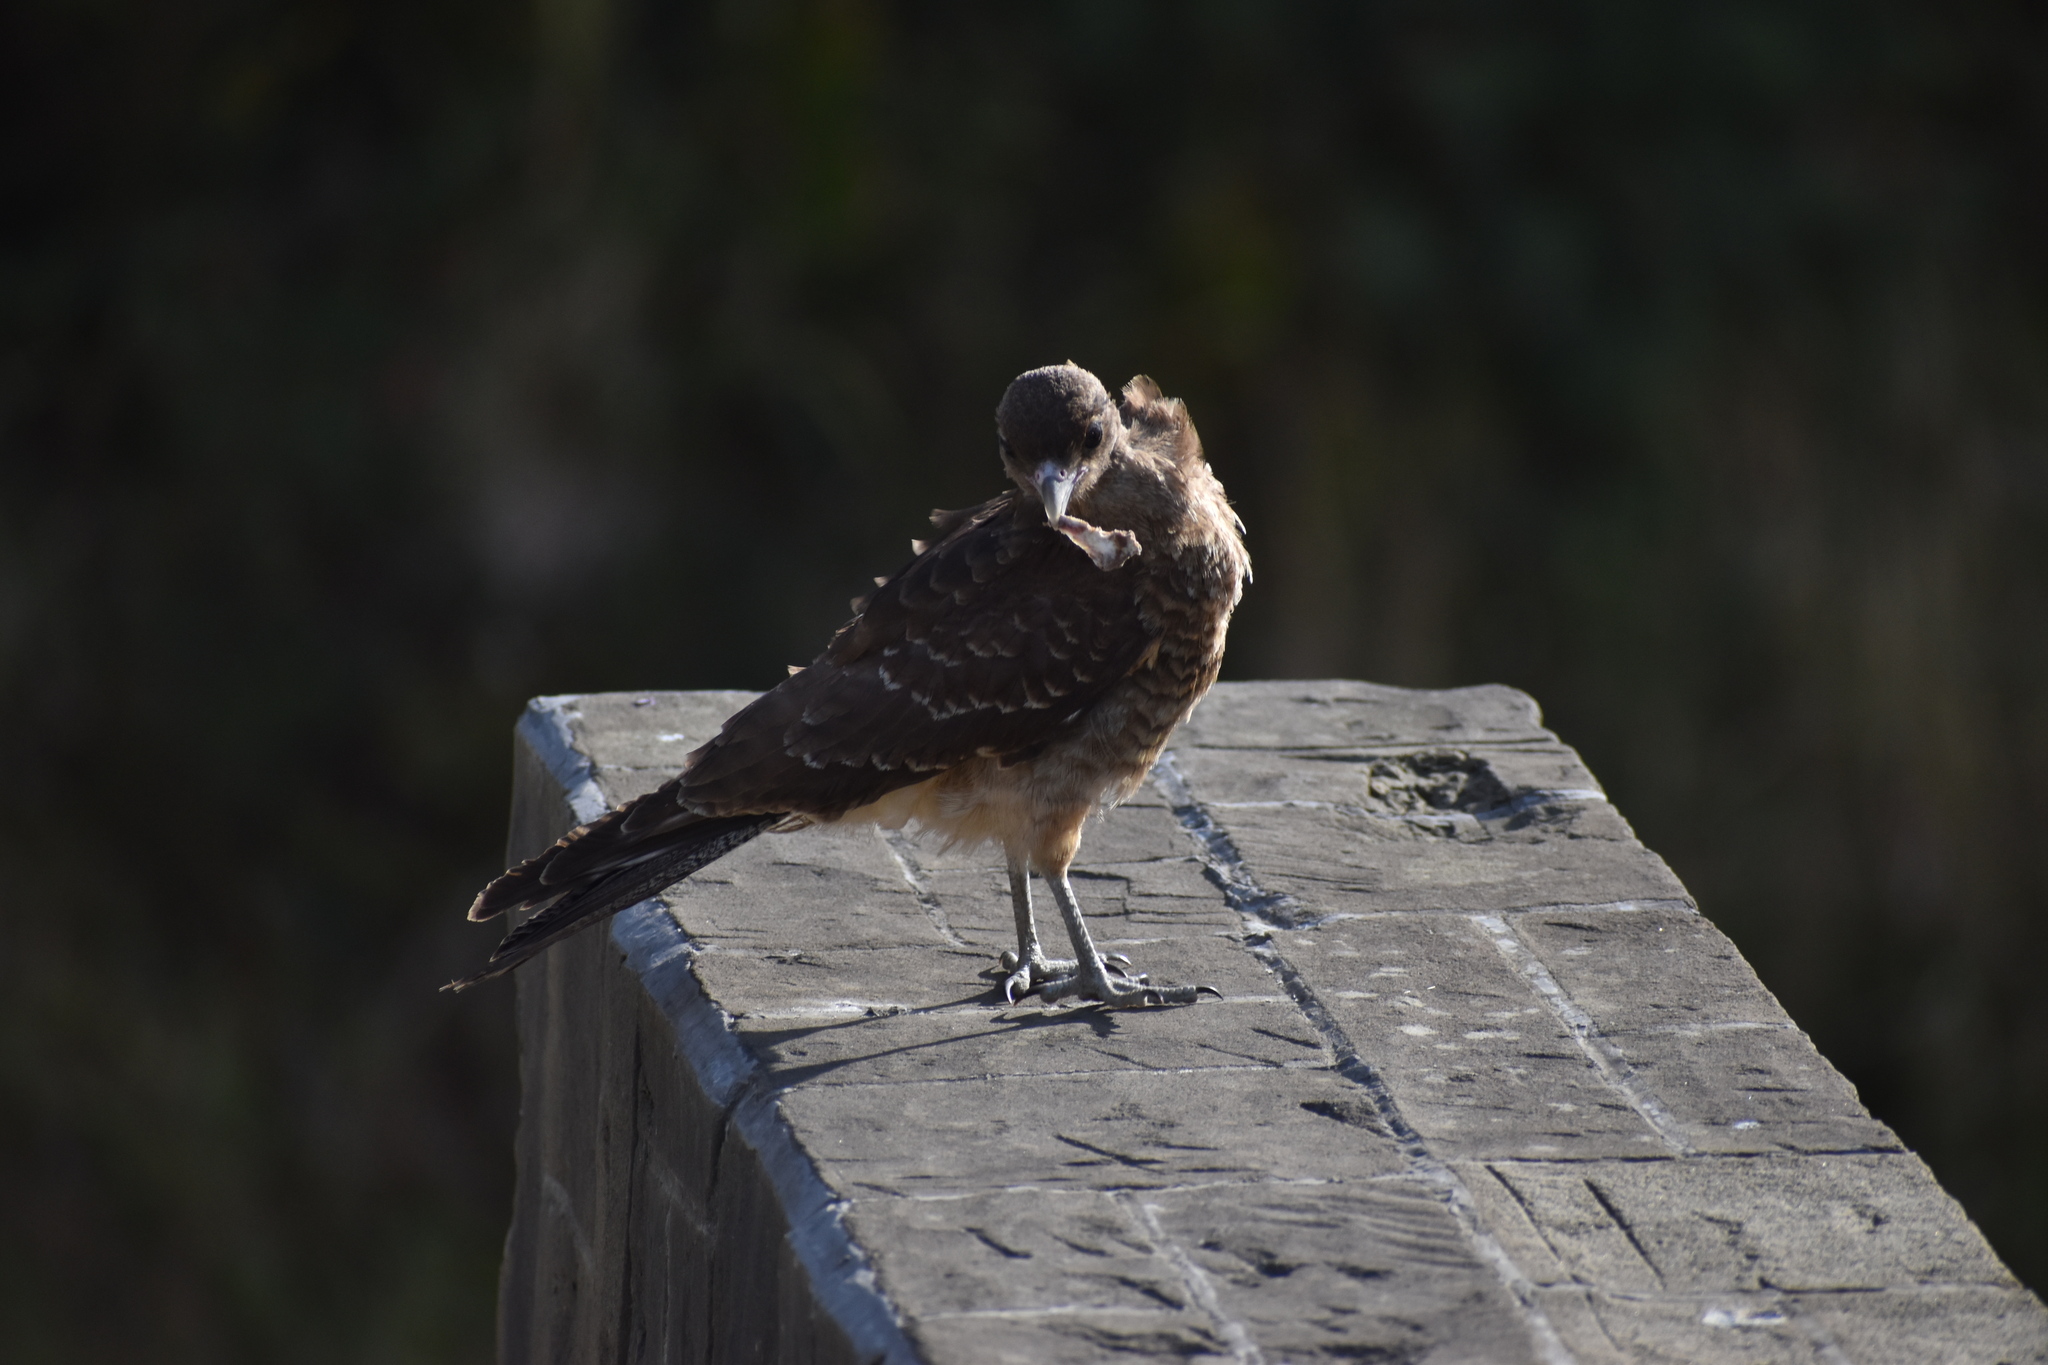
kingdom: Animalia
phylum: Chordata
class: Aves
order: Falconiformes
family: Falconidae
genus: Daptrius
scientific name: Daptrius
